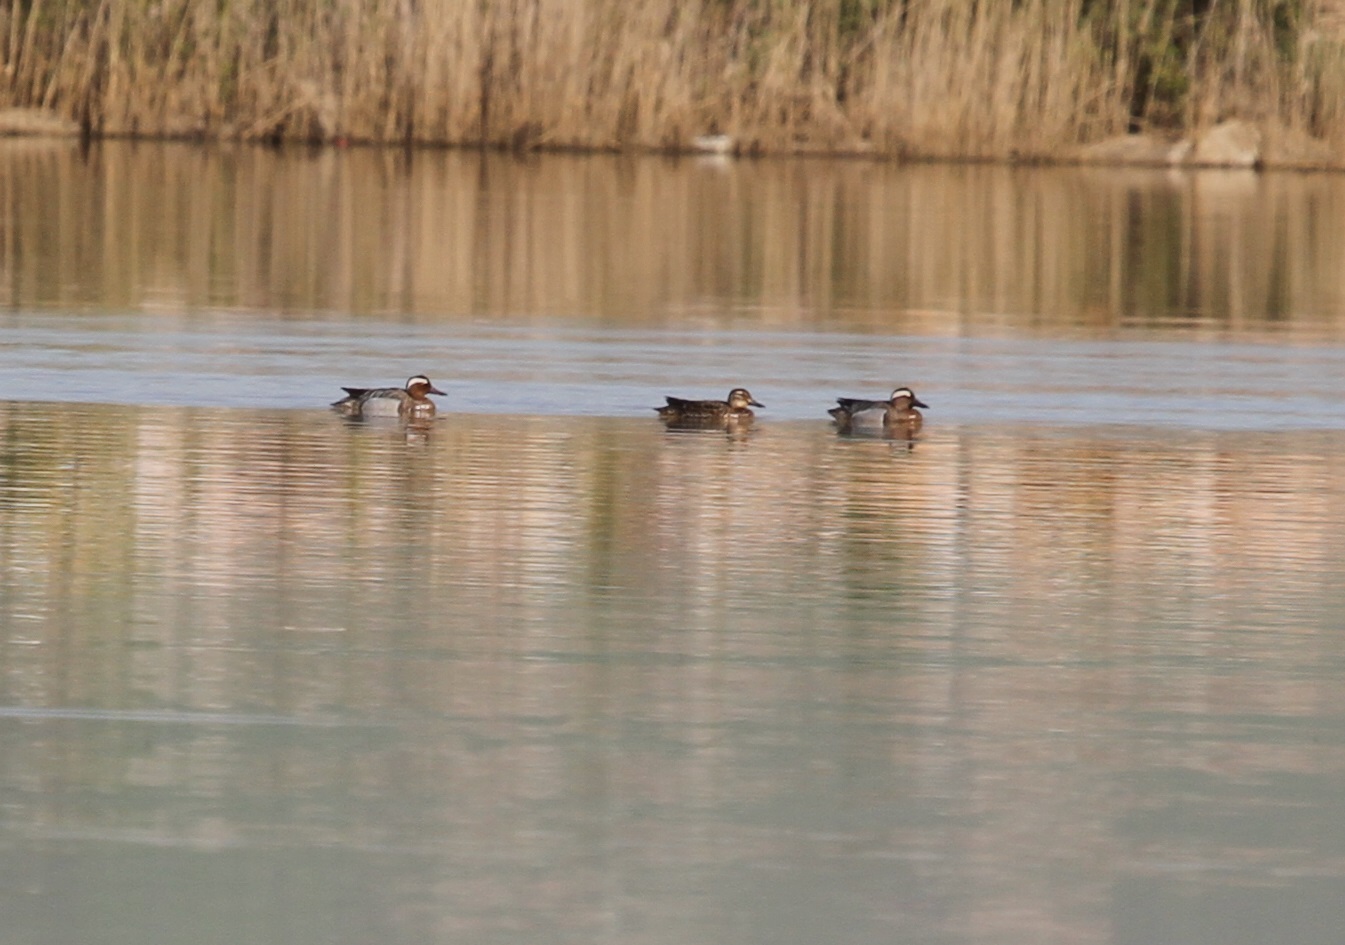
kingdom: Animalia
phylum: Chordata
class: Aves
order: Anseriformes
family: Anatidae
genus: Spatula
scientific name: Spatula querquedula
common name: Garganey
